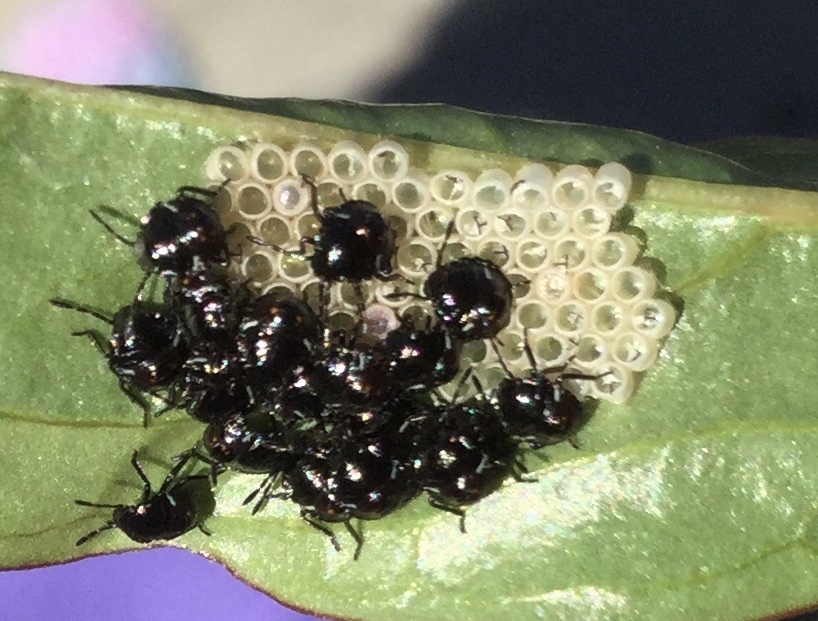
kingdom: Animalia
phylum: Arthropoda
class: Insecta
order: Hemiptera
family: Pentatomidae
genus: Nezara
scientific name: Nezara viridula
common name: Southern green stink bug
